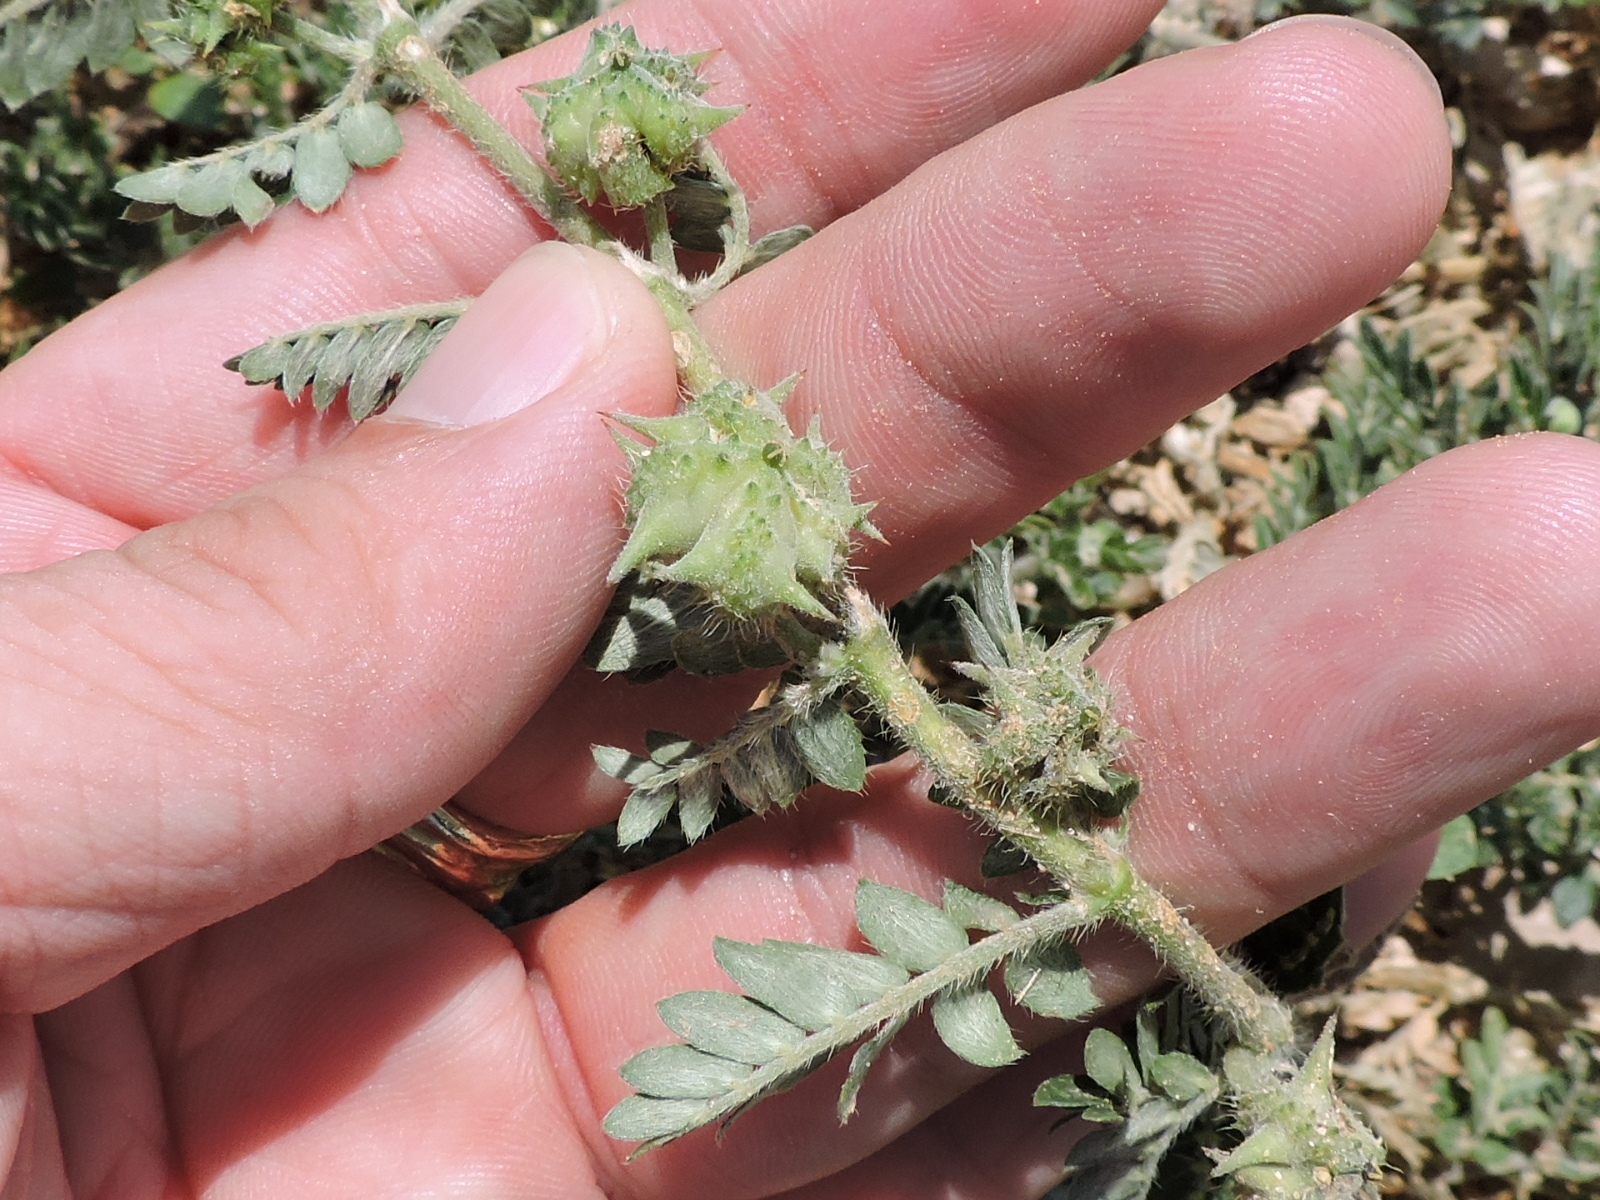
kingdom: Plantae
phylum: Tracheophyta
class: Magnoliopsida
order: Zygophyllales
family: Zygophyllaceae
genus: Tribulus
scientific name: Tribulus terrestris
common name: Puncturevine
